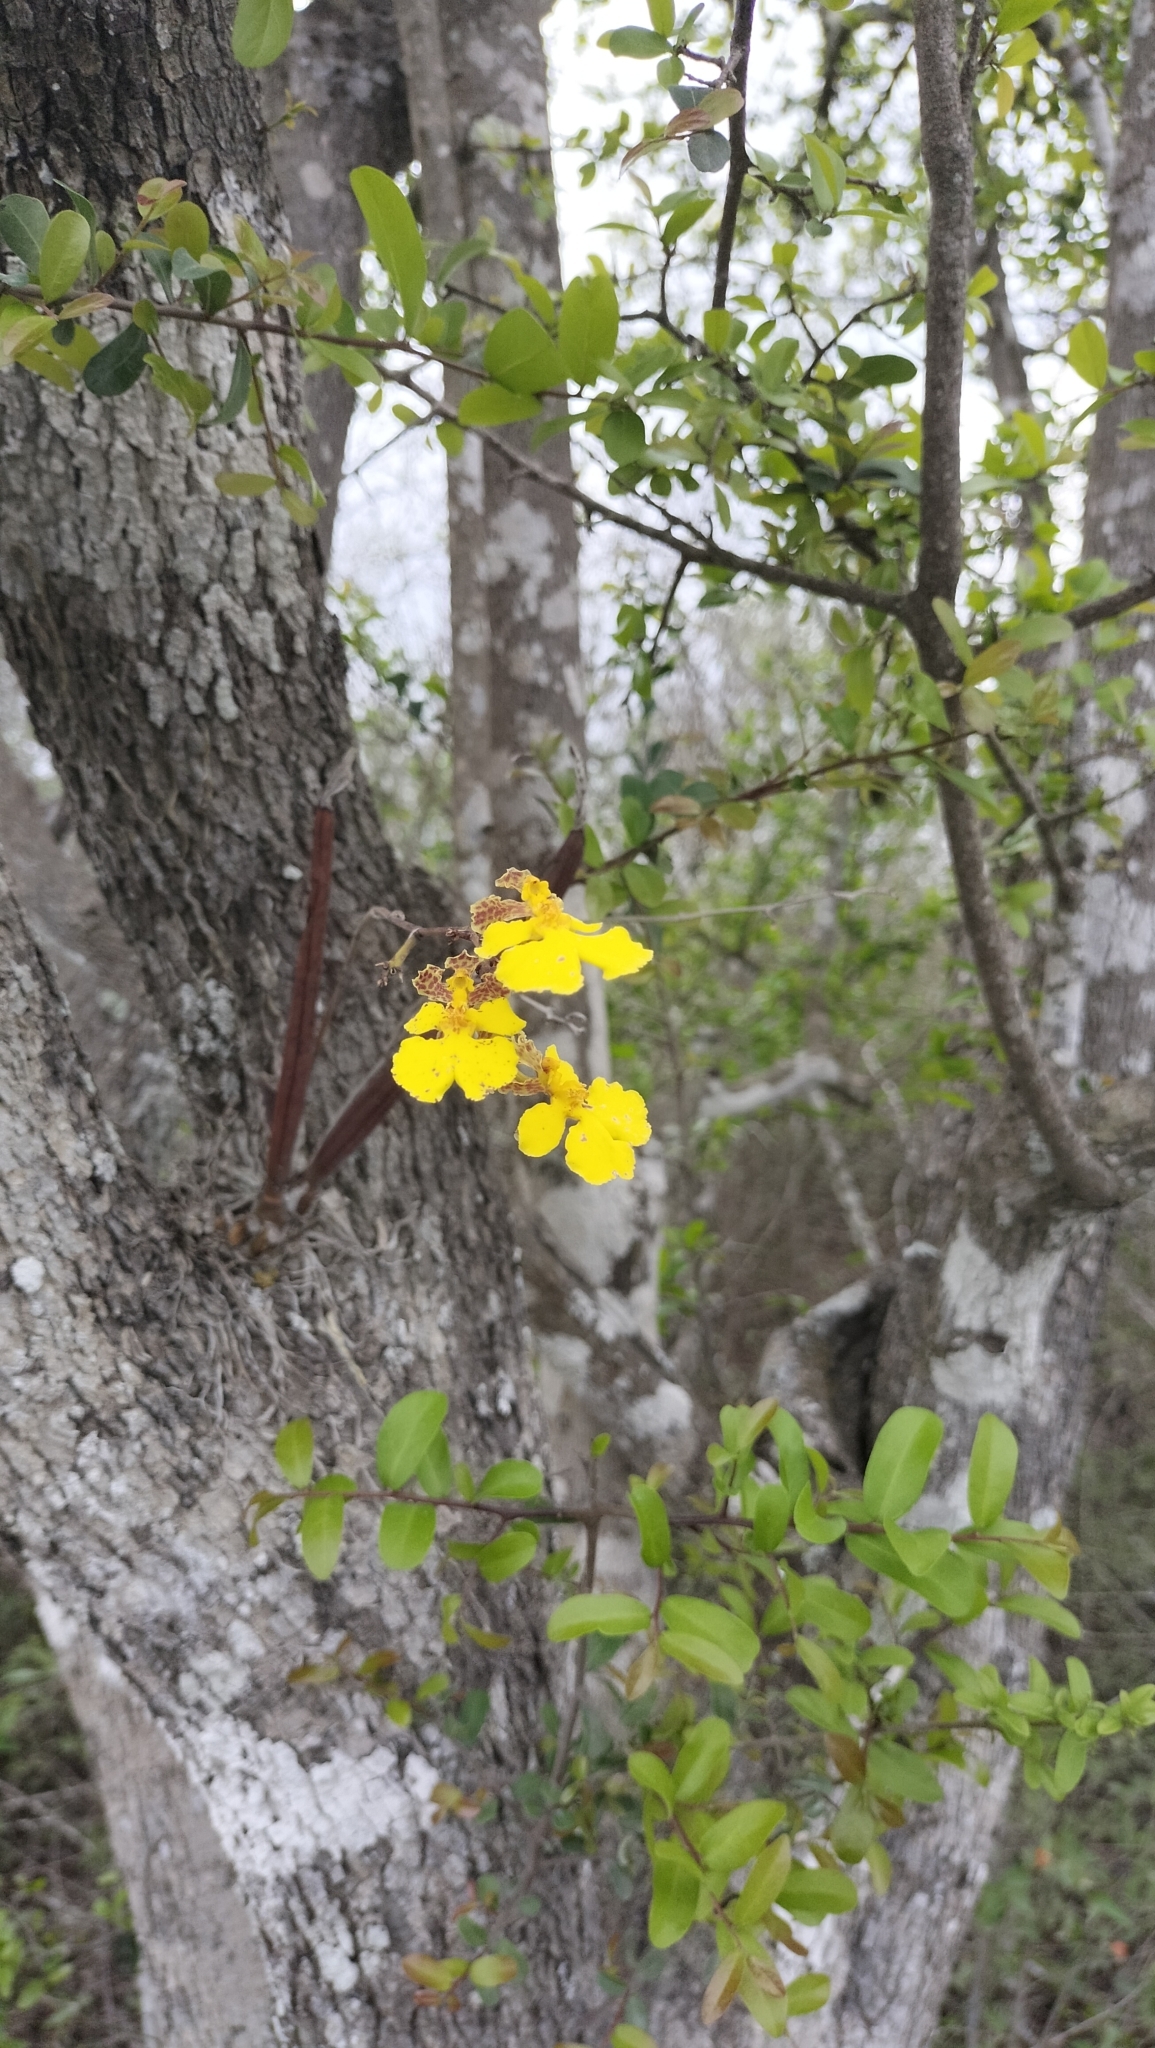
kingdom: Plantae
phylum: Tracheophyta
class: Liliopsida
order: Asparagales
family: Orchidaceae
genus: Trichocentrum
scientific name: Trichocentrum biorbiculare
